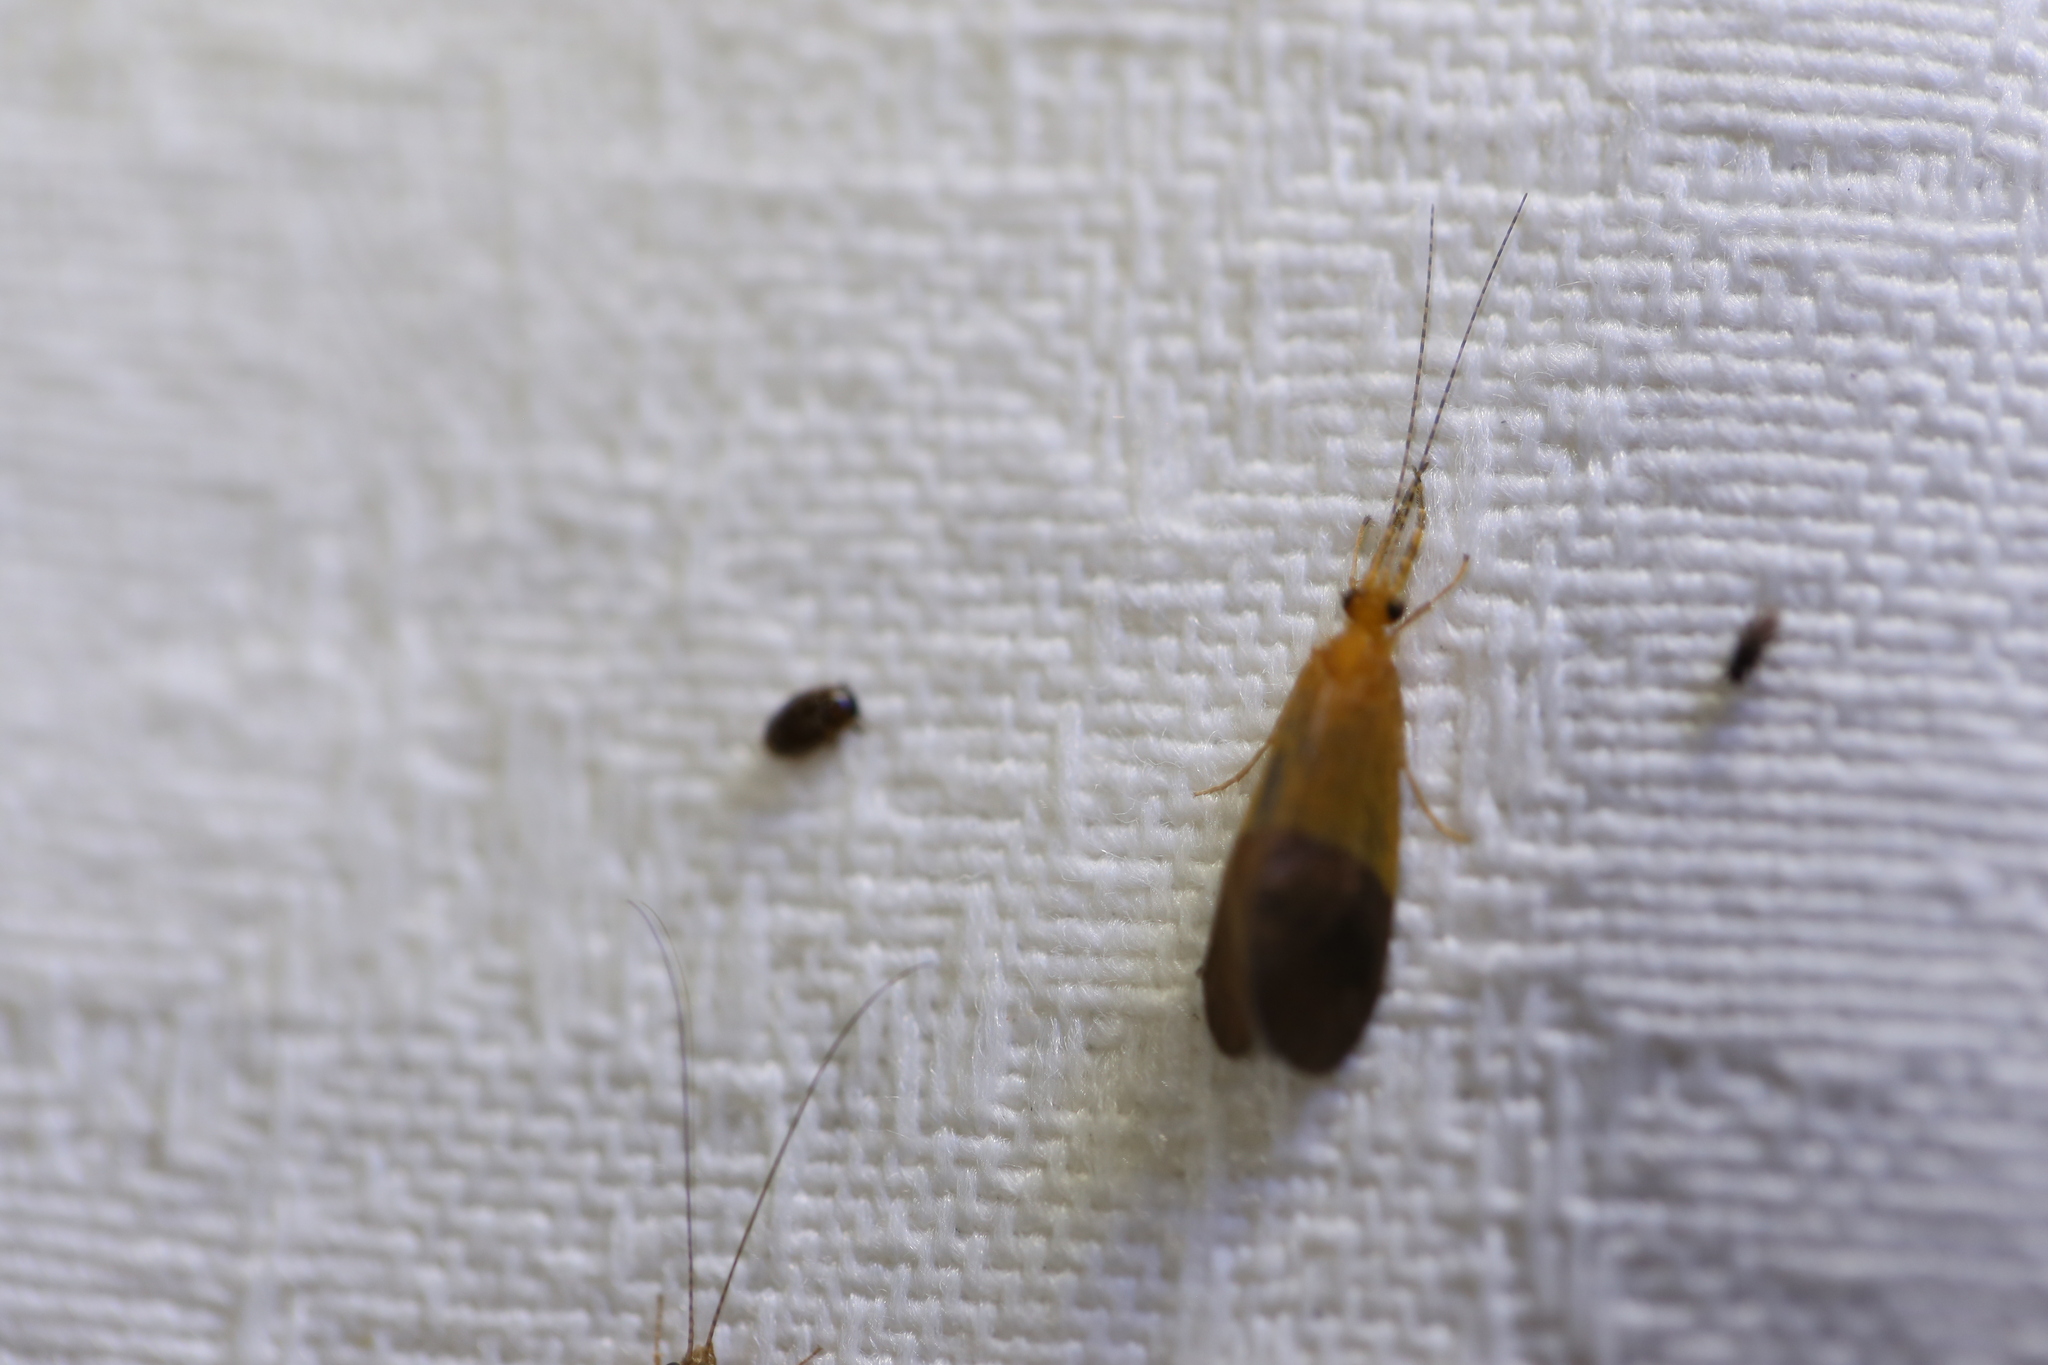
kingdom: Animalia
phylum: Arthropoda
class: Insecta
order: Trichoptera
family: Calamoceratidae
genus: Anisocentropus
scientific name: Anisocentropus bicoloratus
